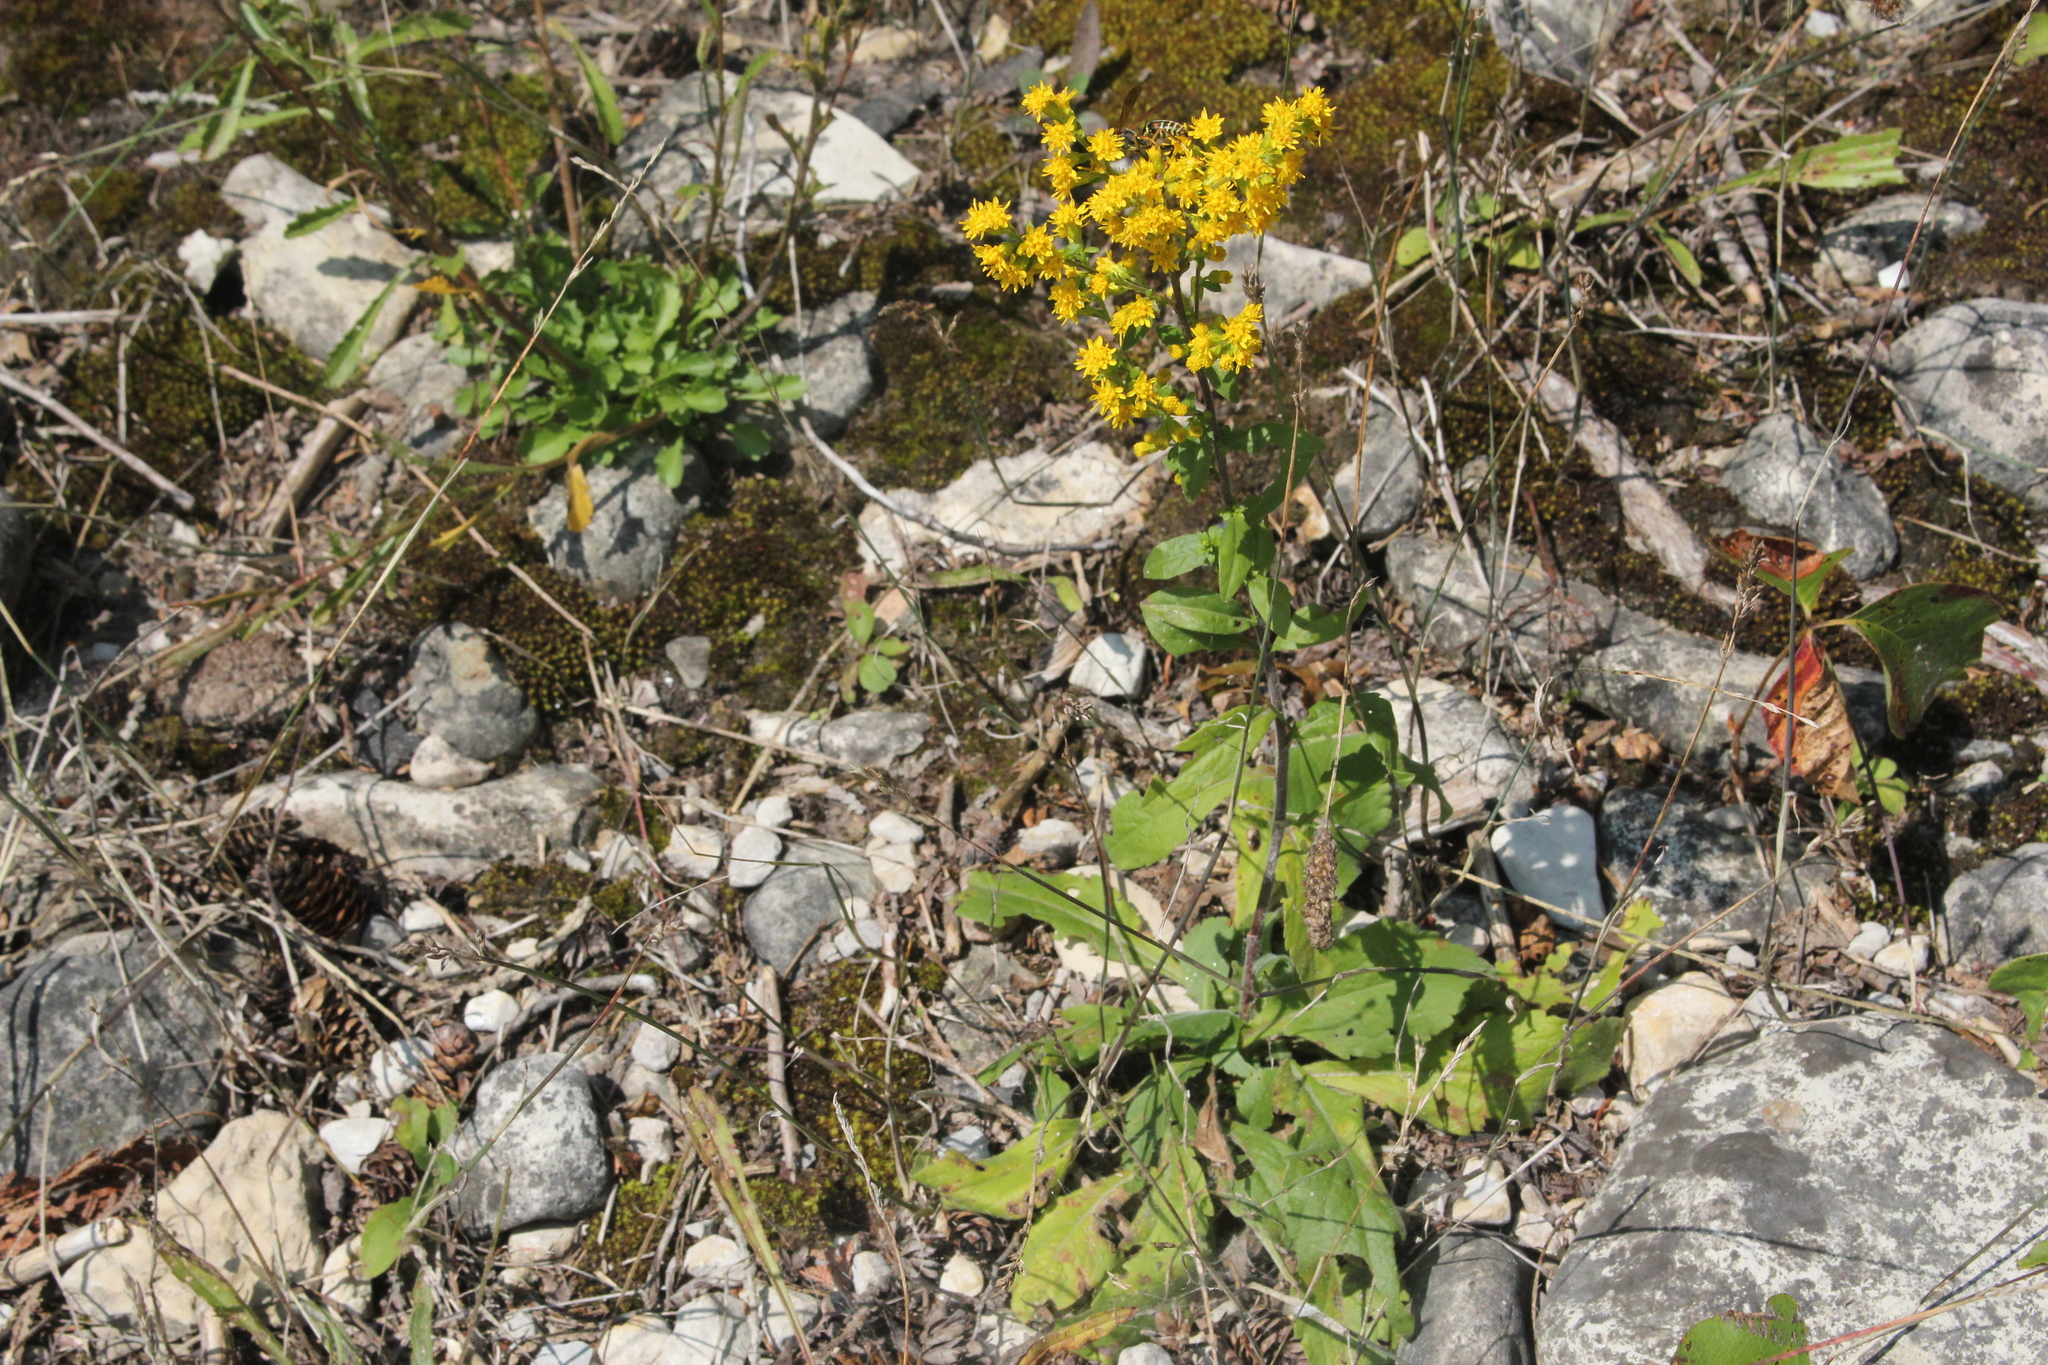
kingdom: Plantae
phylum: Tracheophyta
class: Magnoliopsida
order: Asterales
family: Asteraceae
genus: Solidago
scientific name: Solidago hispida
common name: Hairy goldenrod
